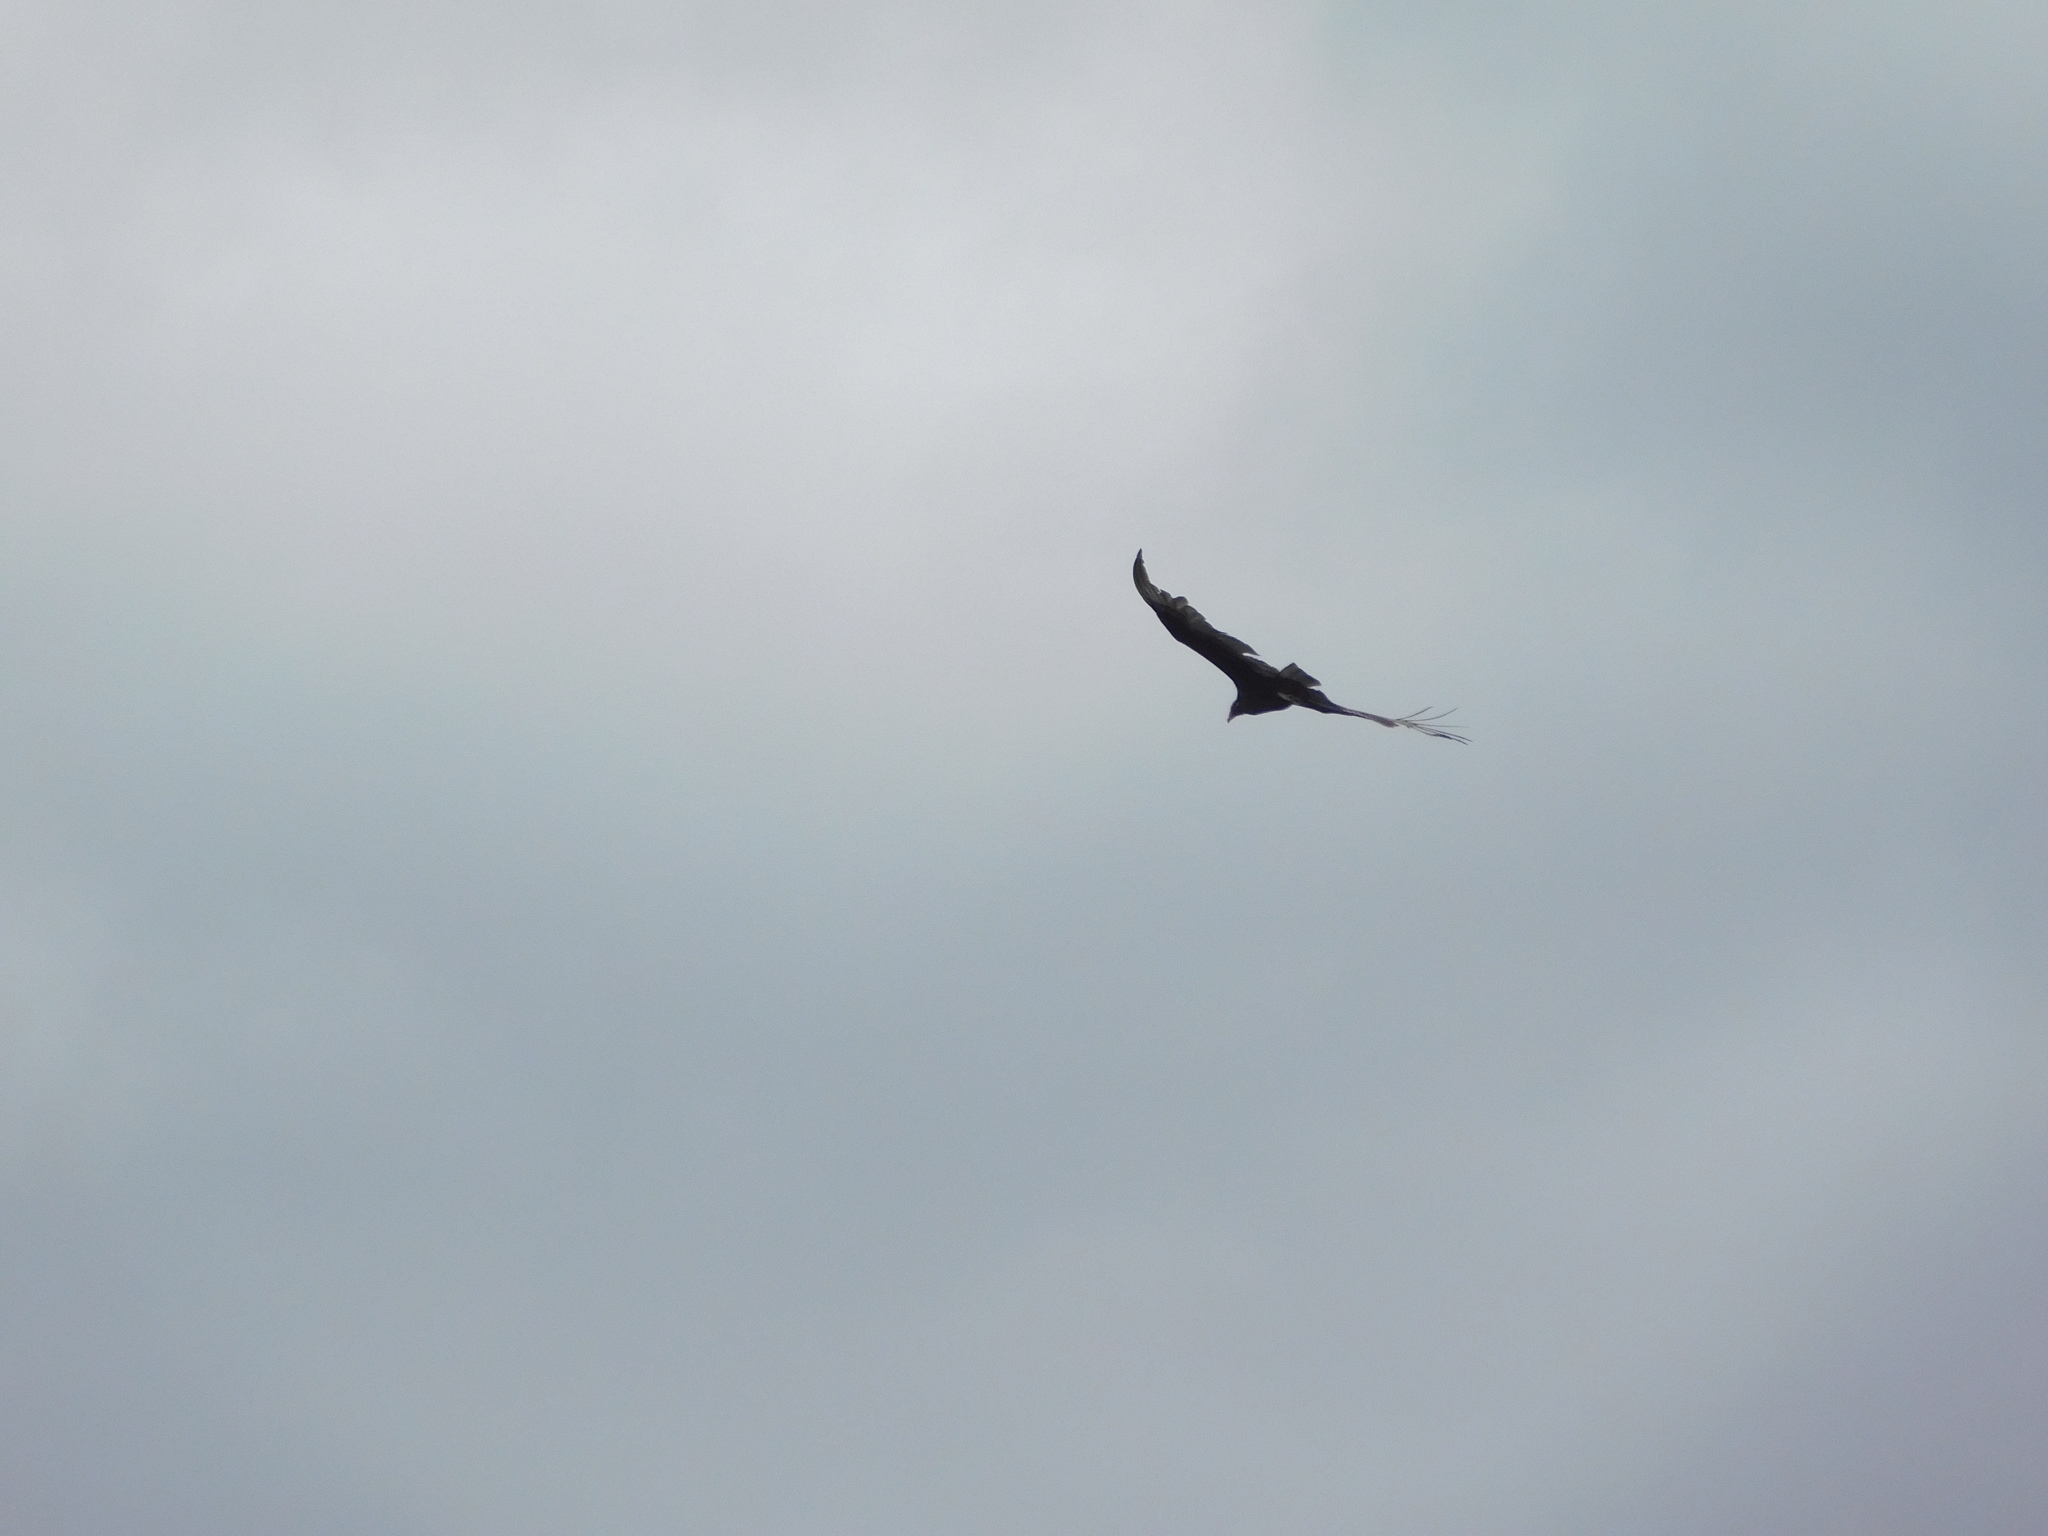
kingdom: Animalia
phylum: Chordata
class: Aves
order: Accipitriformes
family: Cathartidae
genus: Cathartes
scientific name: Cathartes aura
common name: Turkey vulture
